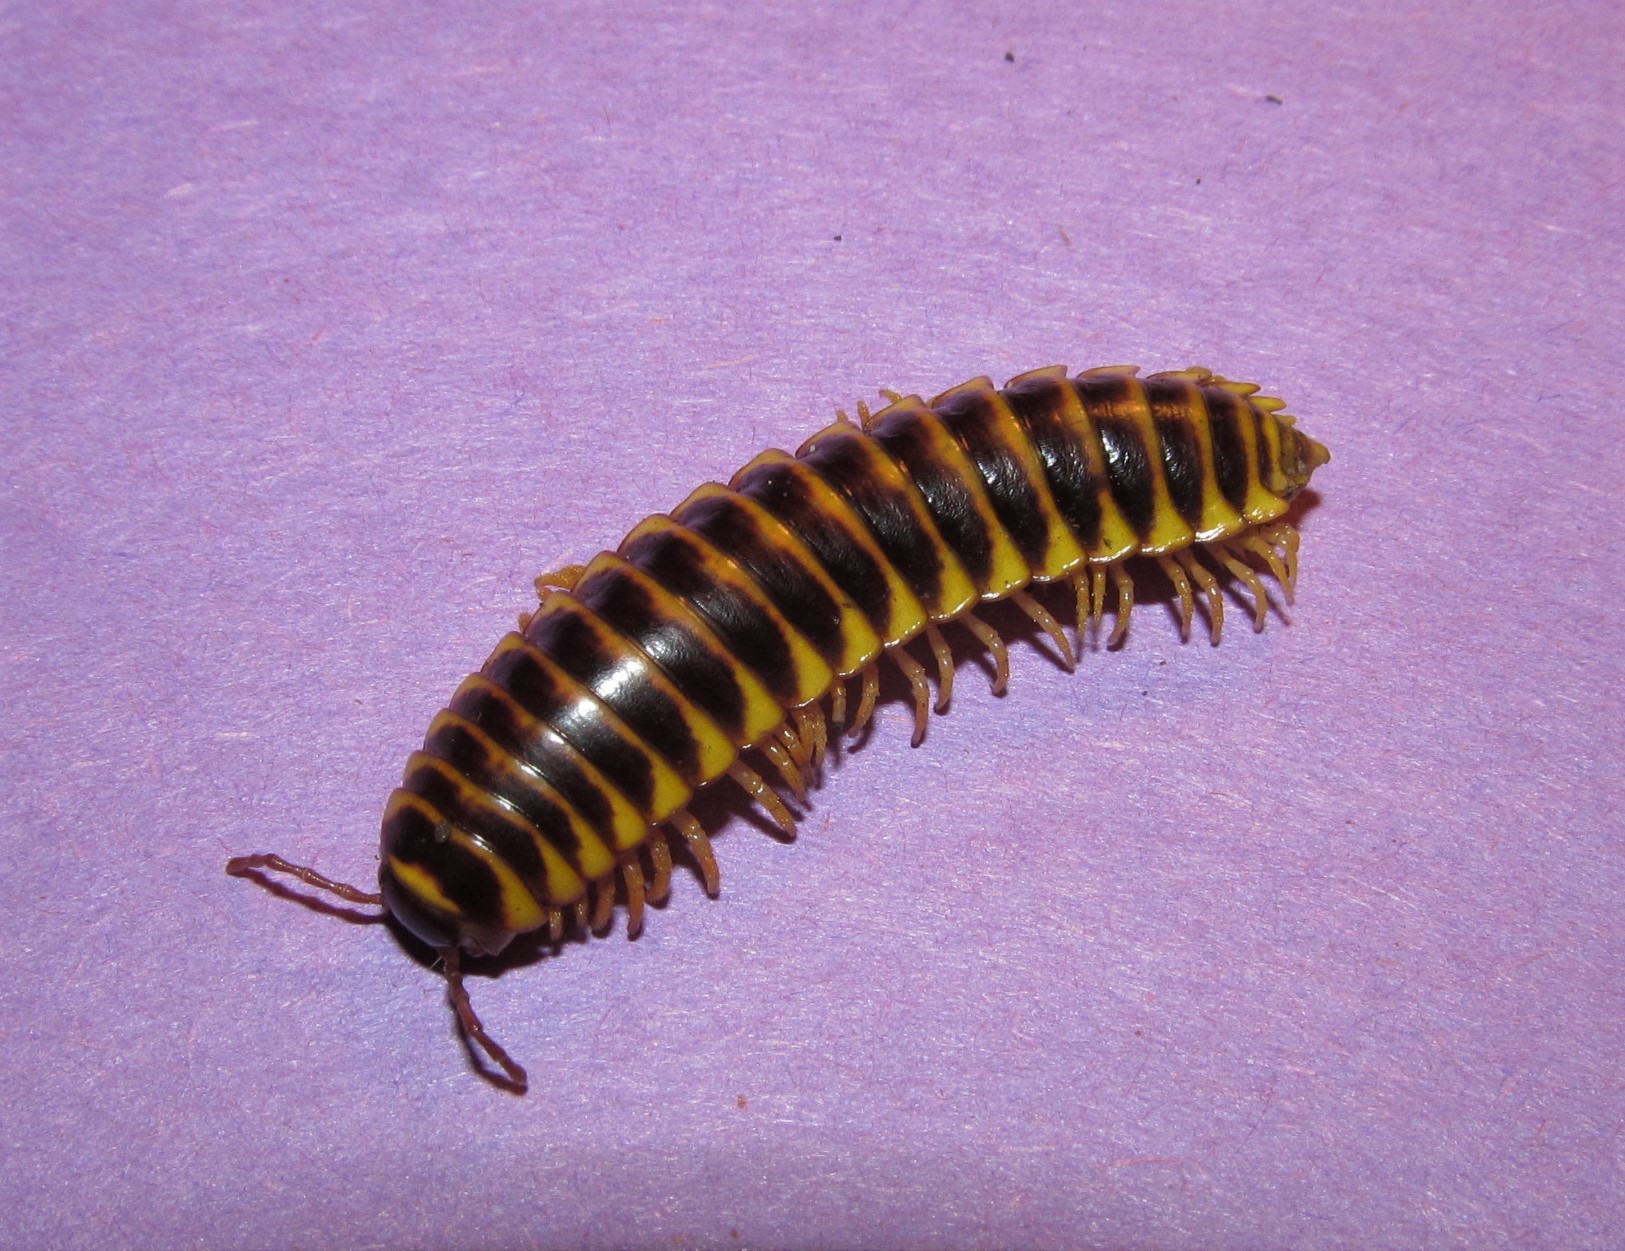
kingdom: Animalia
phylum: Arthropoda
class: Diplopoda
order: Polydesmida
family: Xystodesmidae
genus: Appalachioria
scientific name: Appalachioria calcaria
